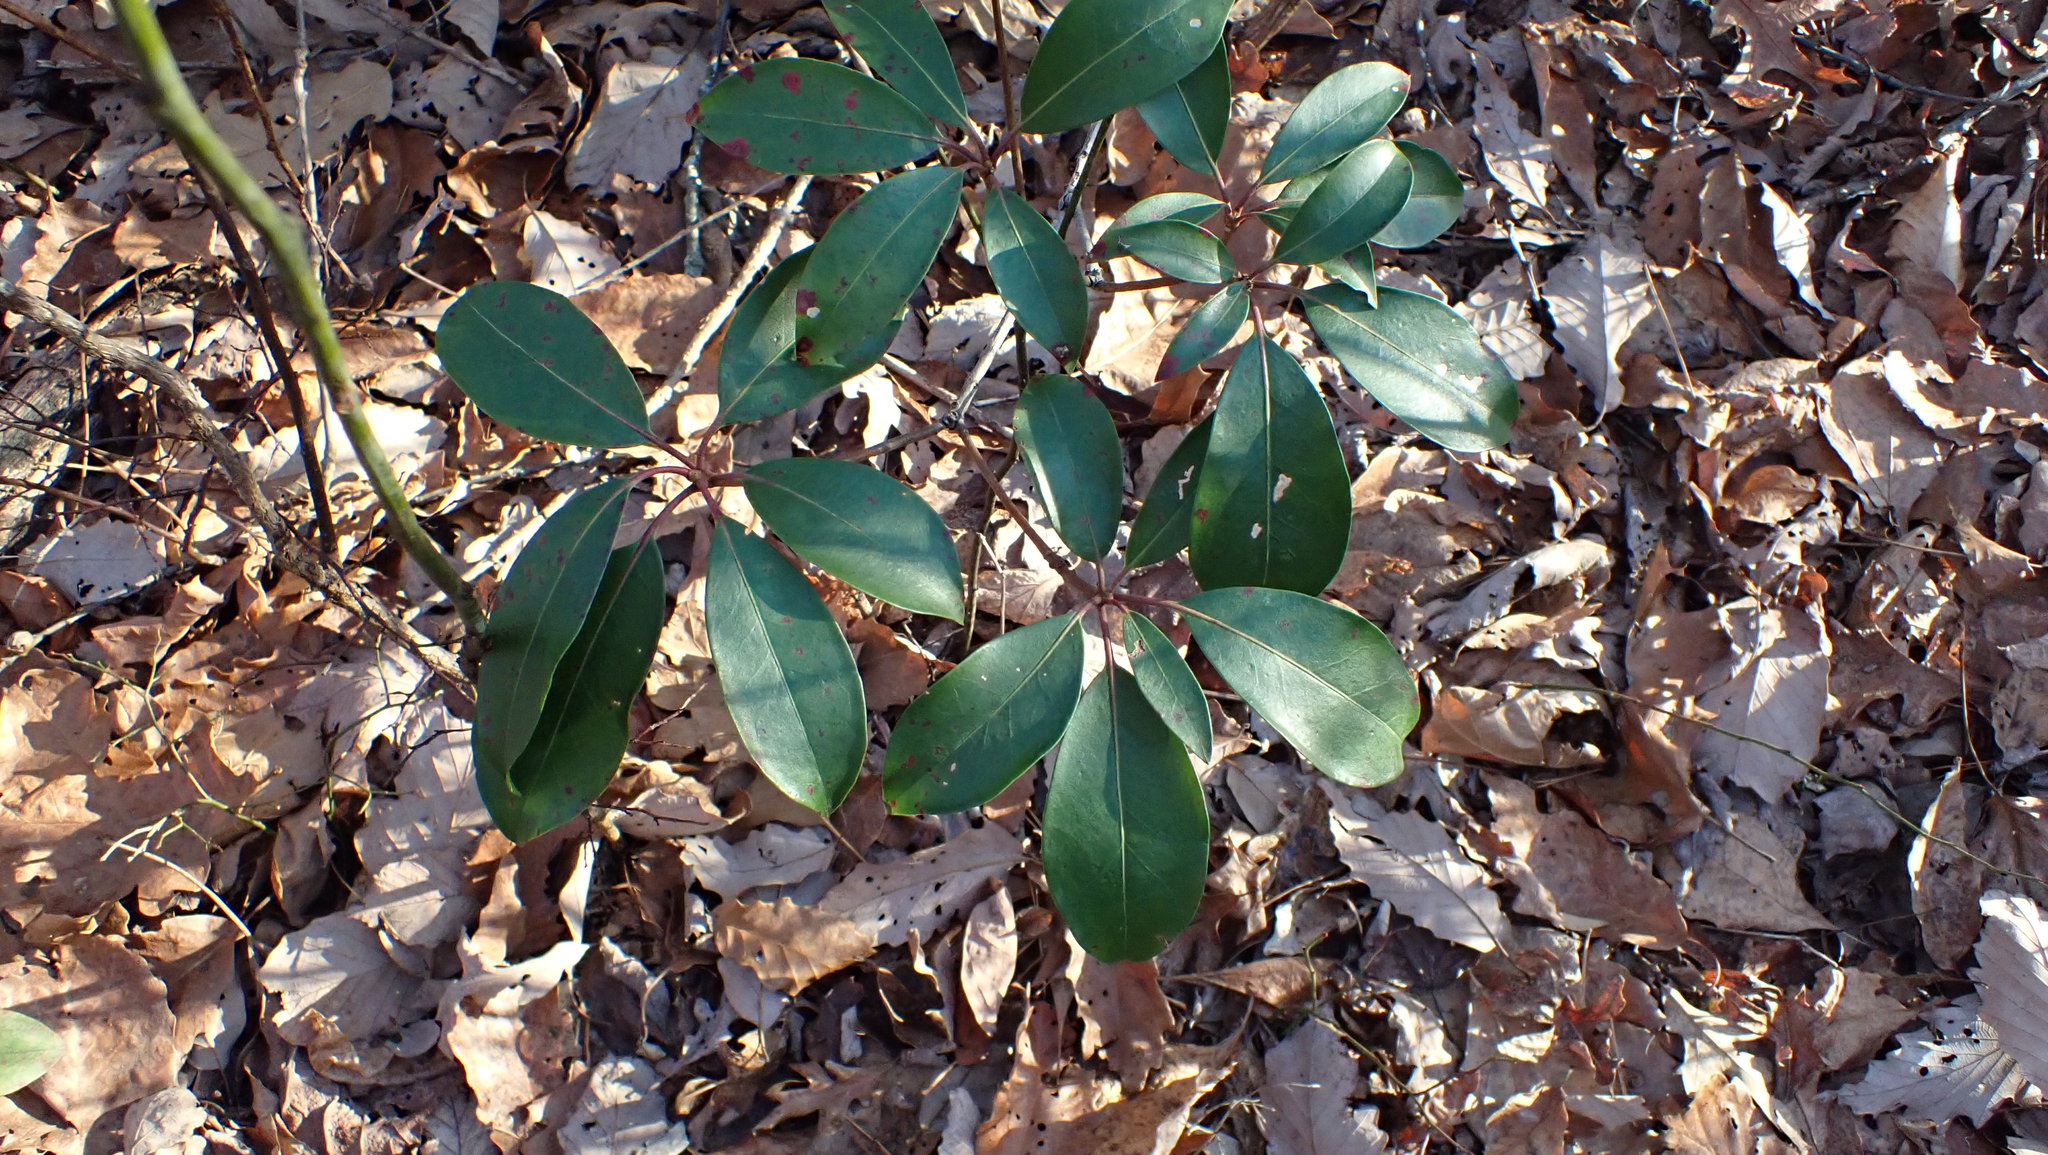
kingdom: Plantae
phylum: Tracheophyta
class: Magnoliopsida
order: Ericales
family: Ericaceae
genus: Kalmia
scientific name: Kalmia latifolia
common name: Mountain-laurel
